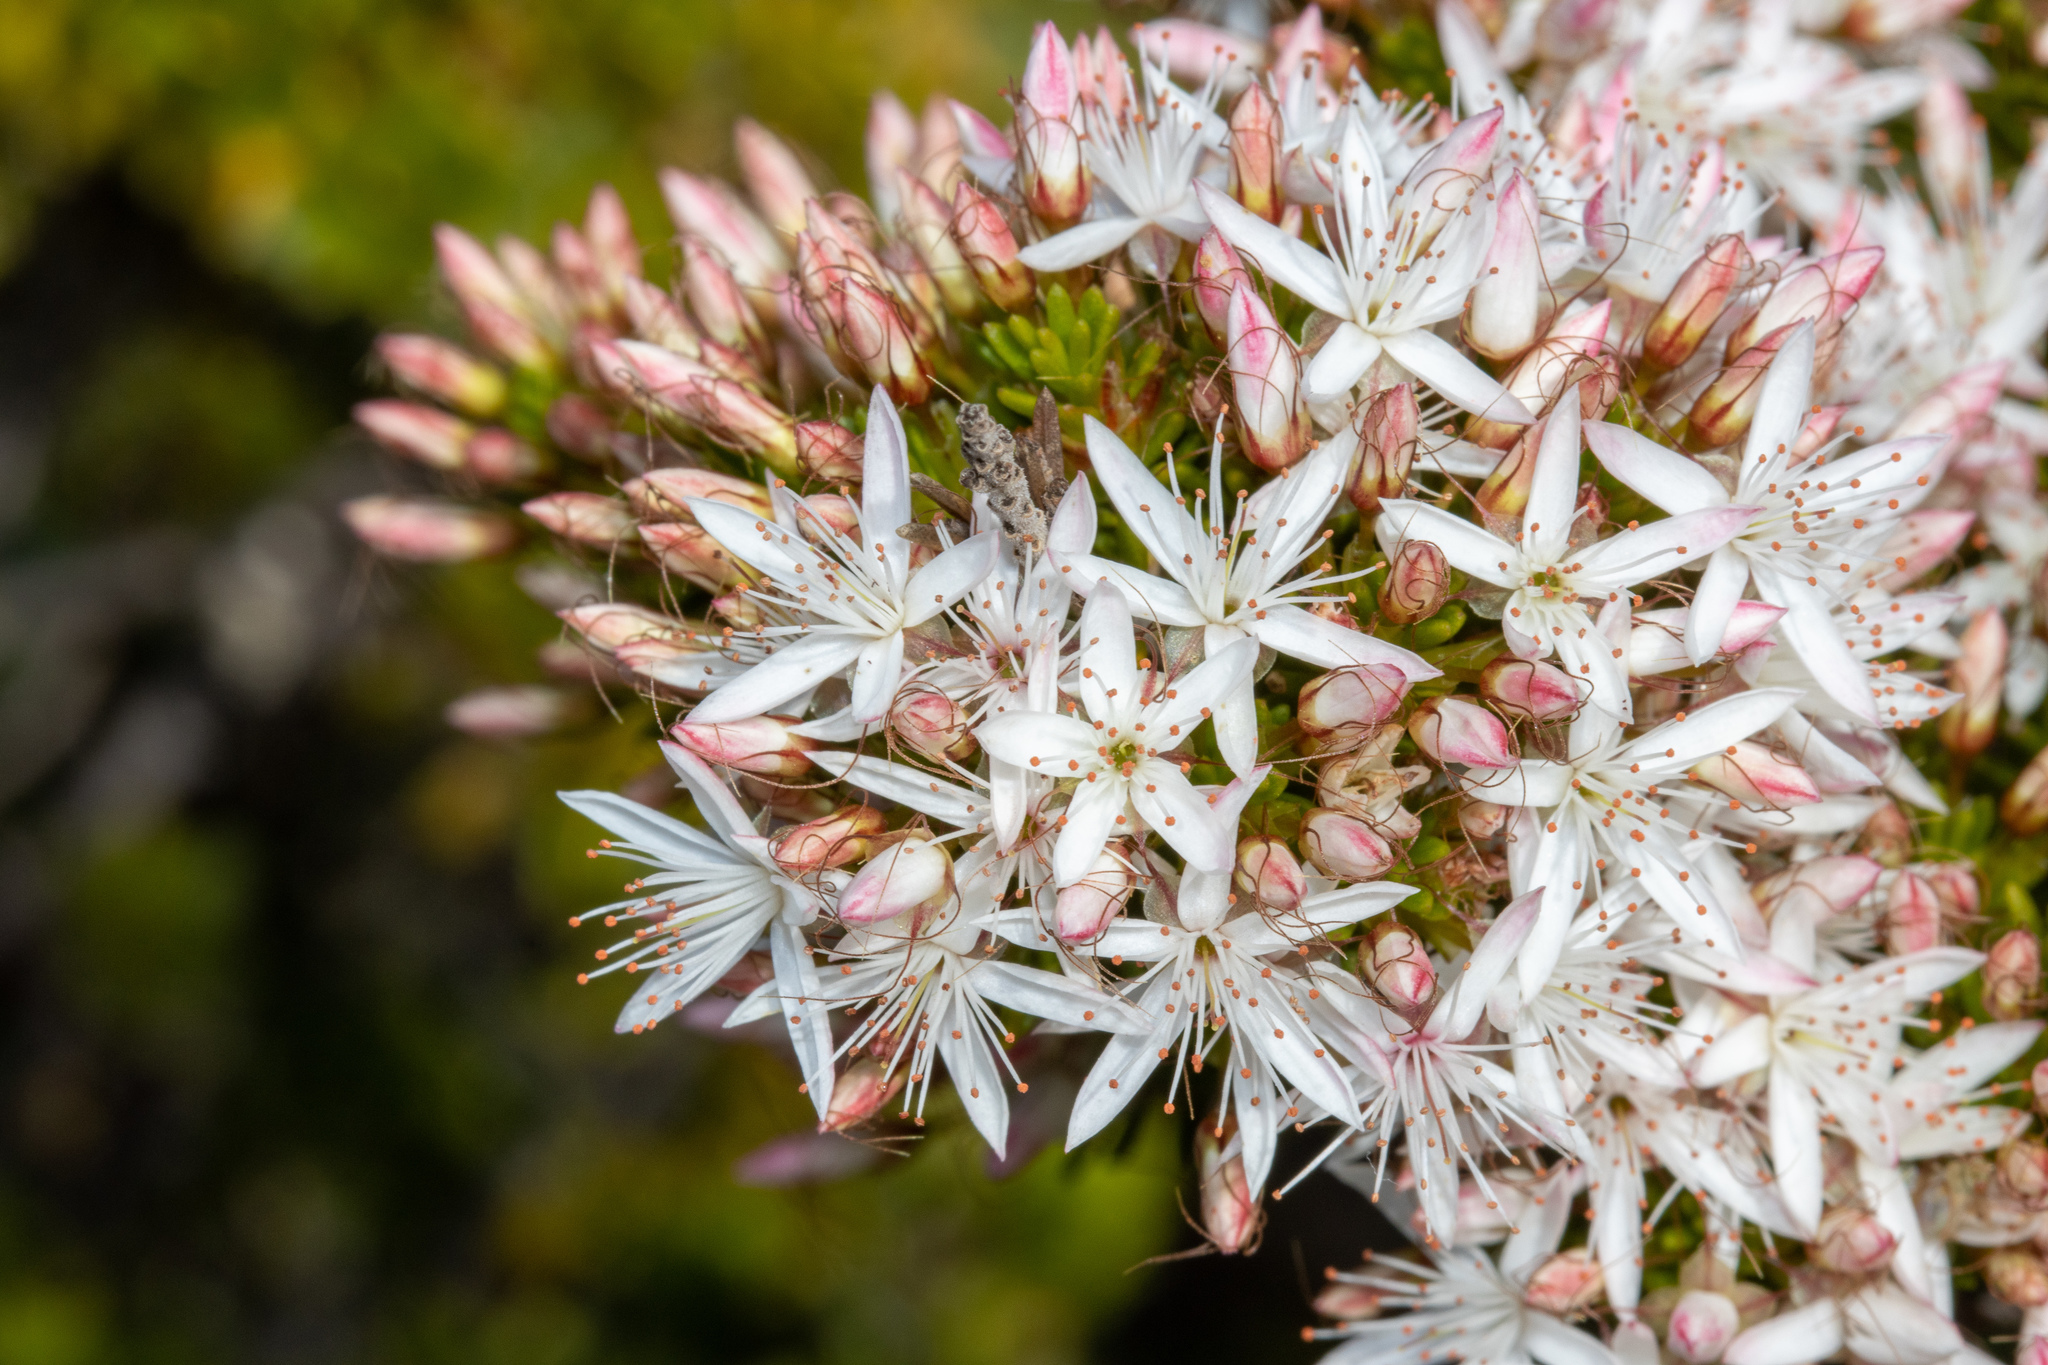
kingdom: Plantae
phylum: Tracheophyta
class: Magnoliopsida
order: Myrtales
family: Myrtaceae
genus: Calytrix
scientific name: Calytrix tetragona
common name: Common fringe myrtle
